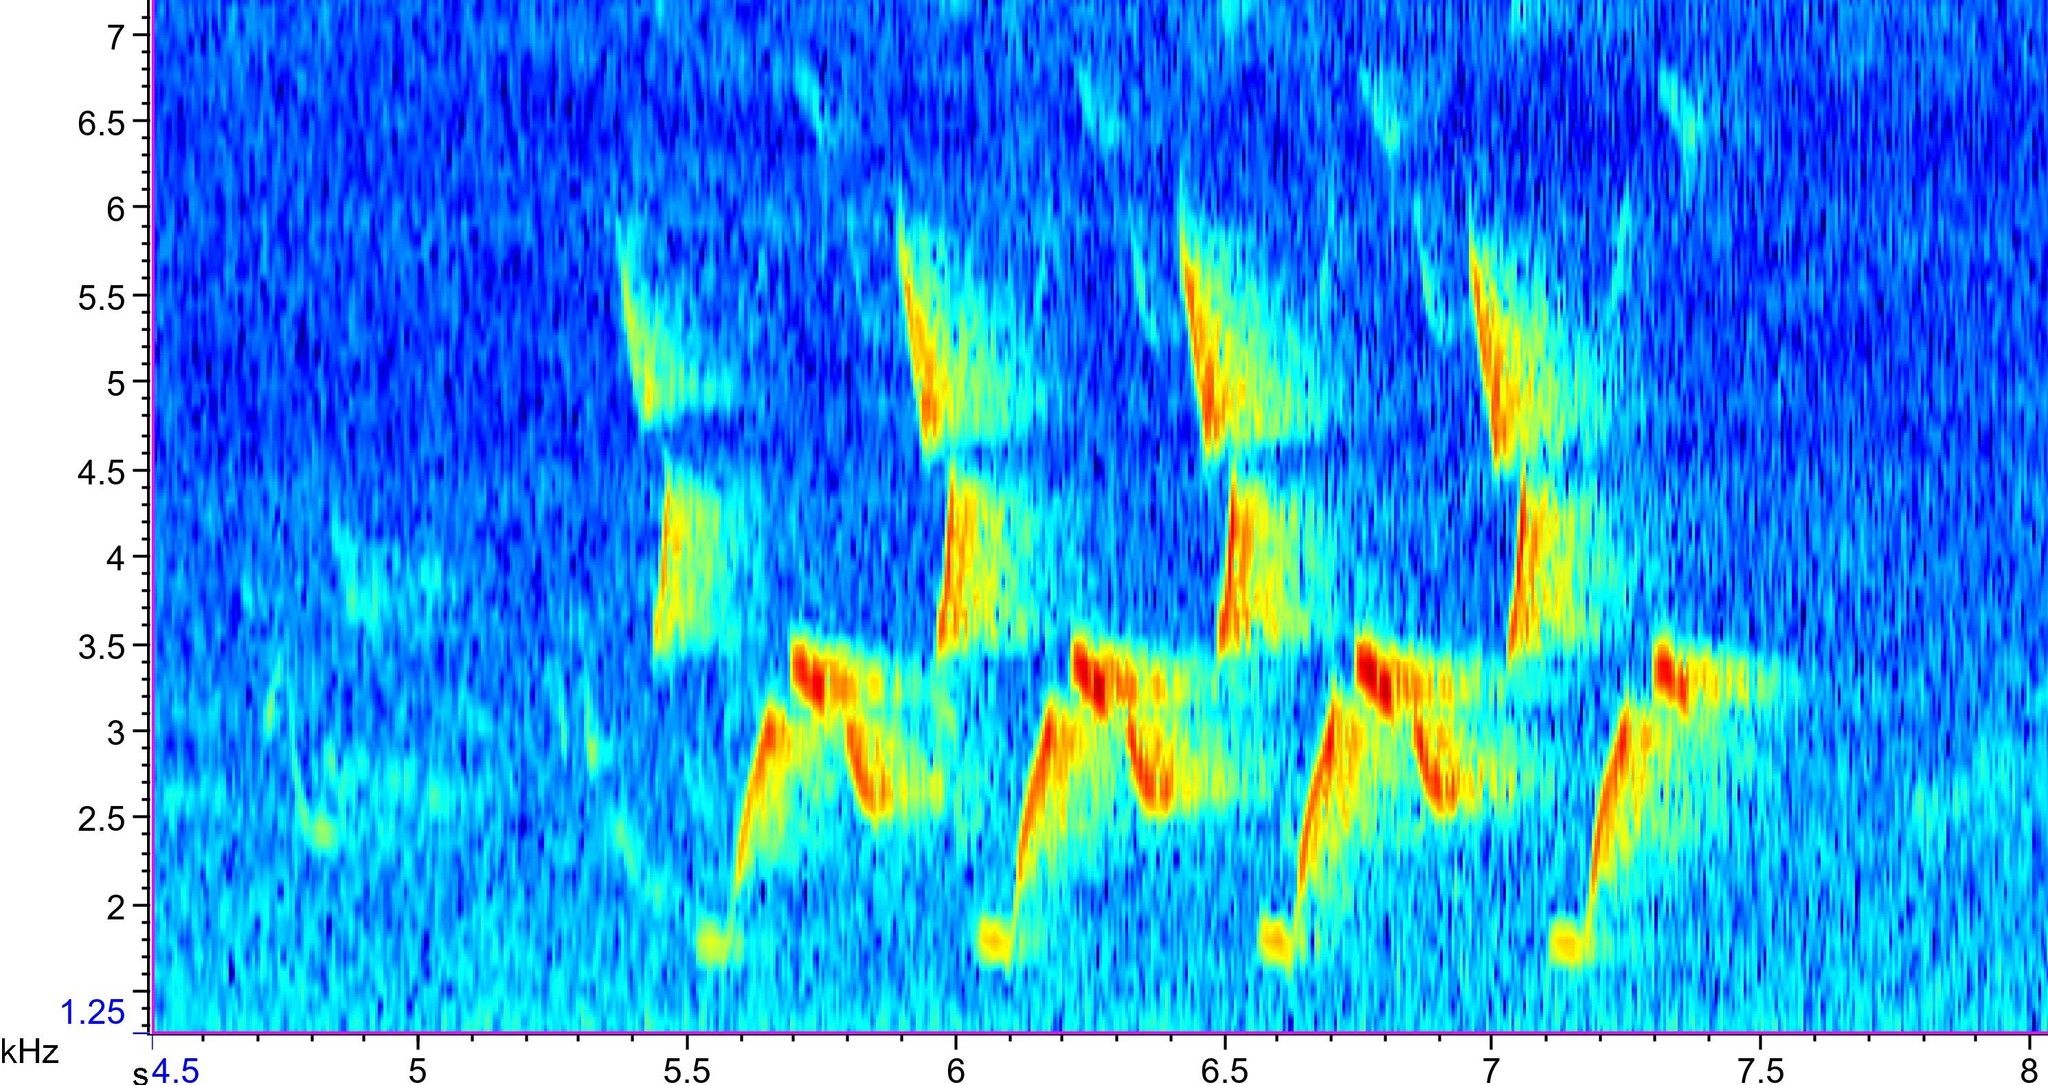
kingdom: Animalia
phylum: Chordata
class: Aves
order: Passeriformes
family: Troglodytidae
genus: Thryothorus
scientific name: Thryothorus ludovicianus
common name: Carolina wren
